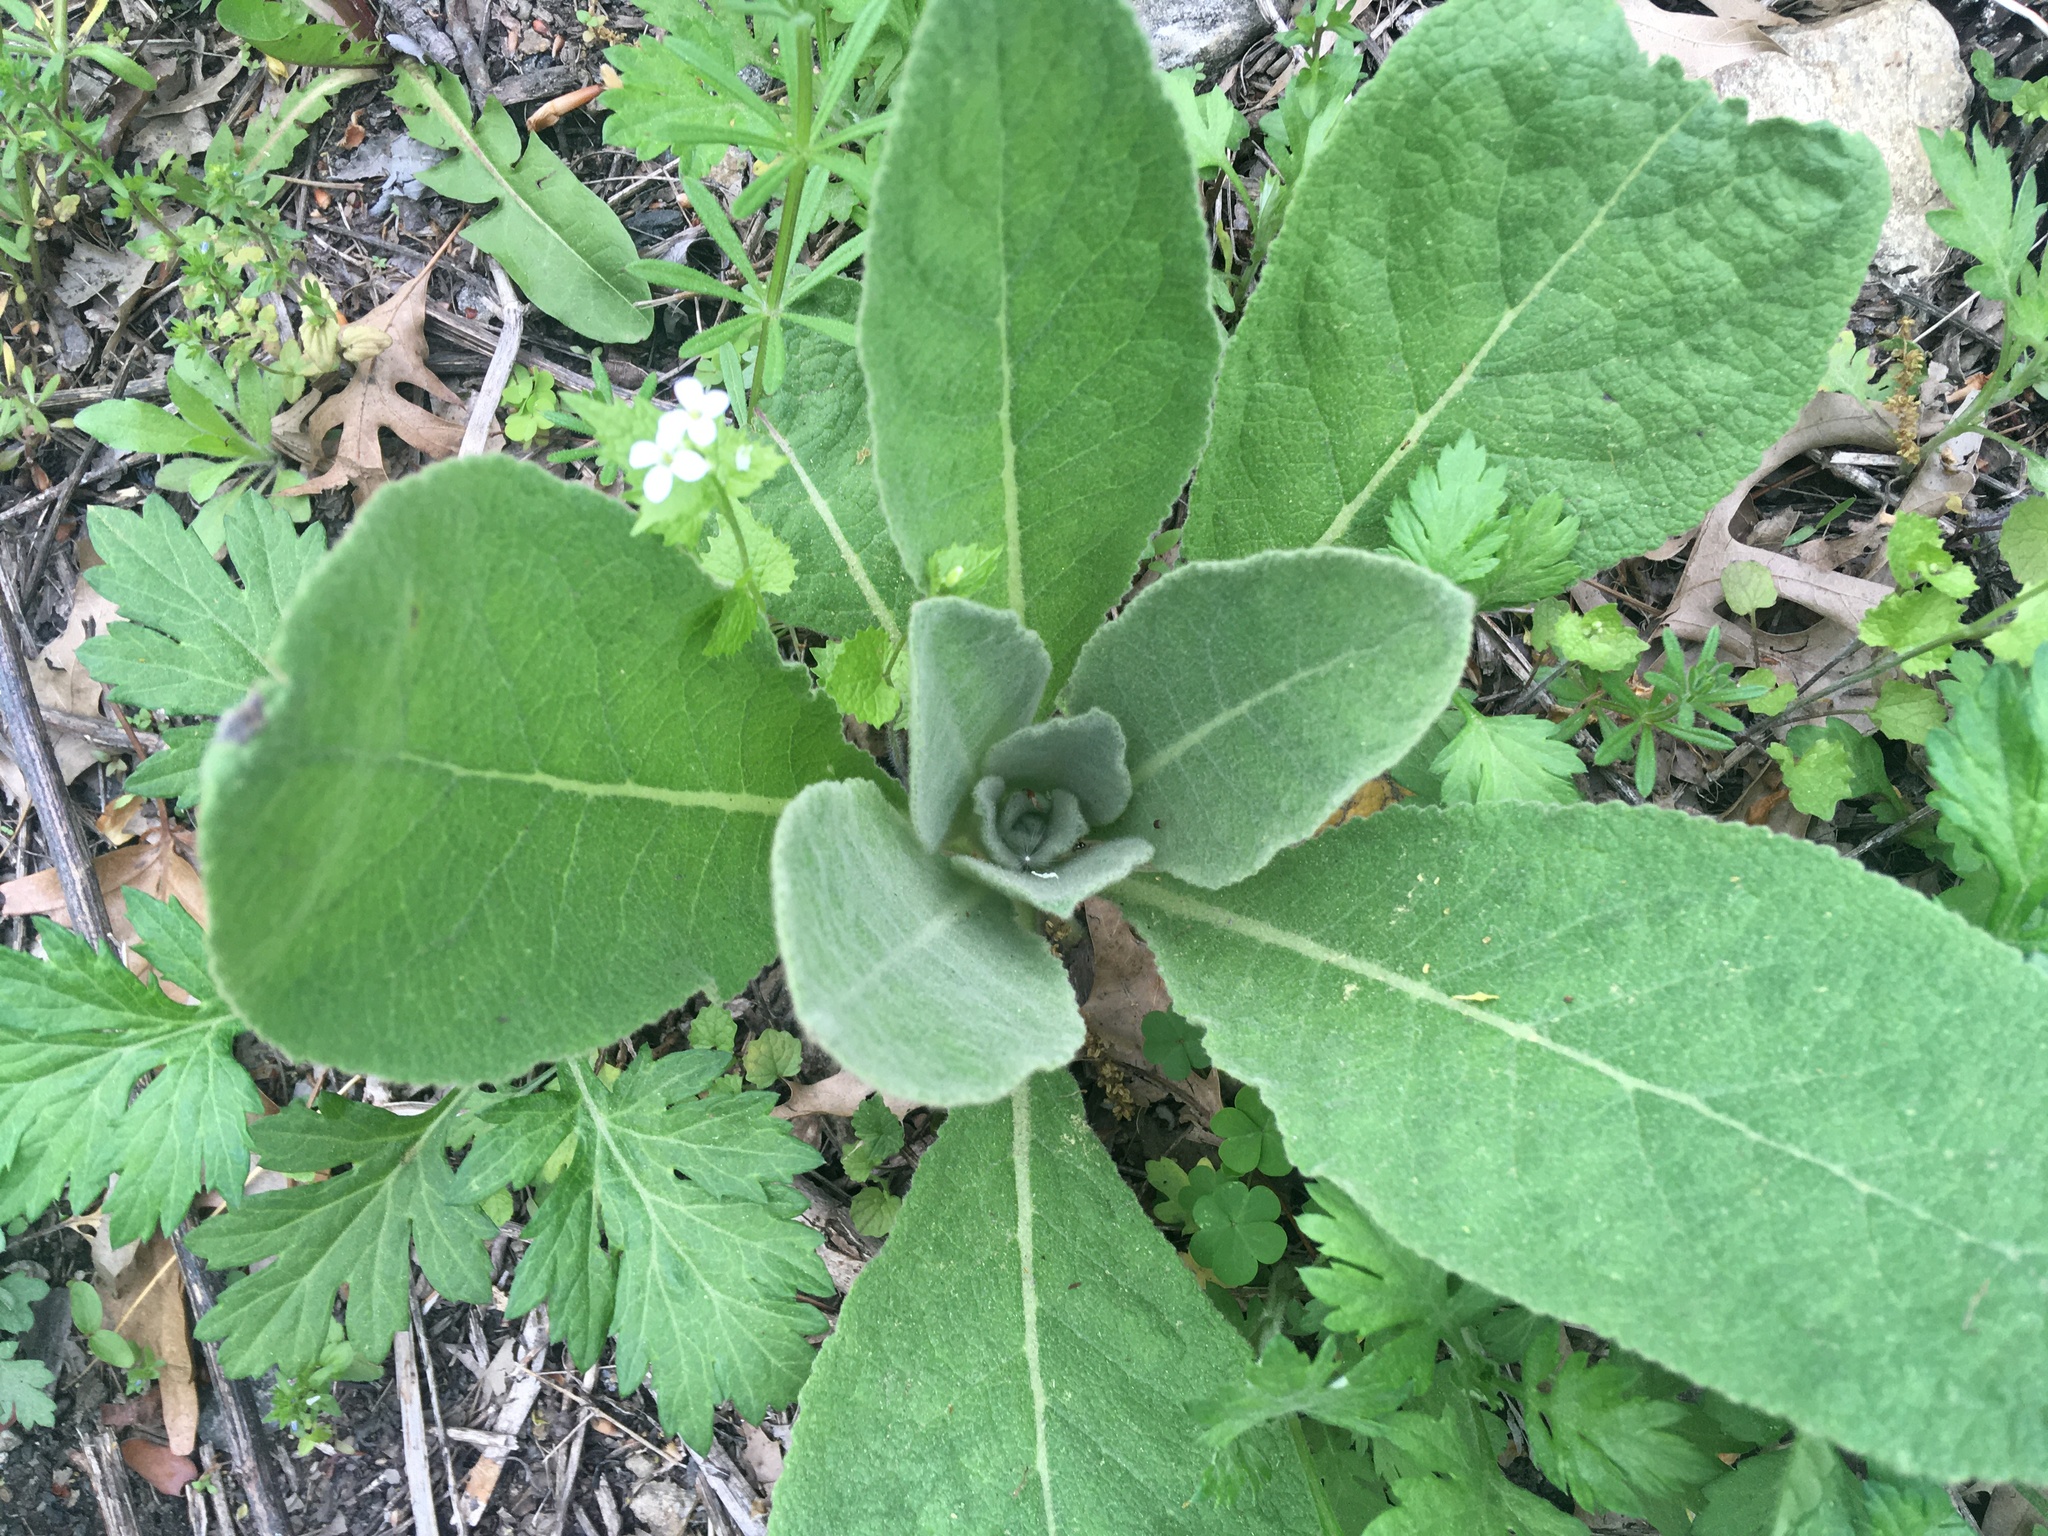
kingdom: Plantae
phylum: Tracheophyta
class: Magnoliopsida
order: Lamiales
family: Scrophulariaceae
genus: Verbascum
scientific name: Verbascum thapsus
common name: Common mullein
